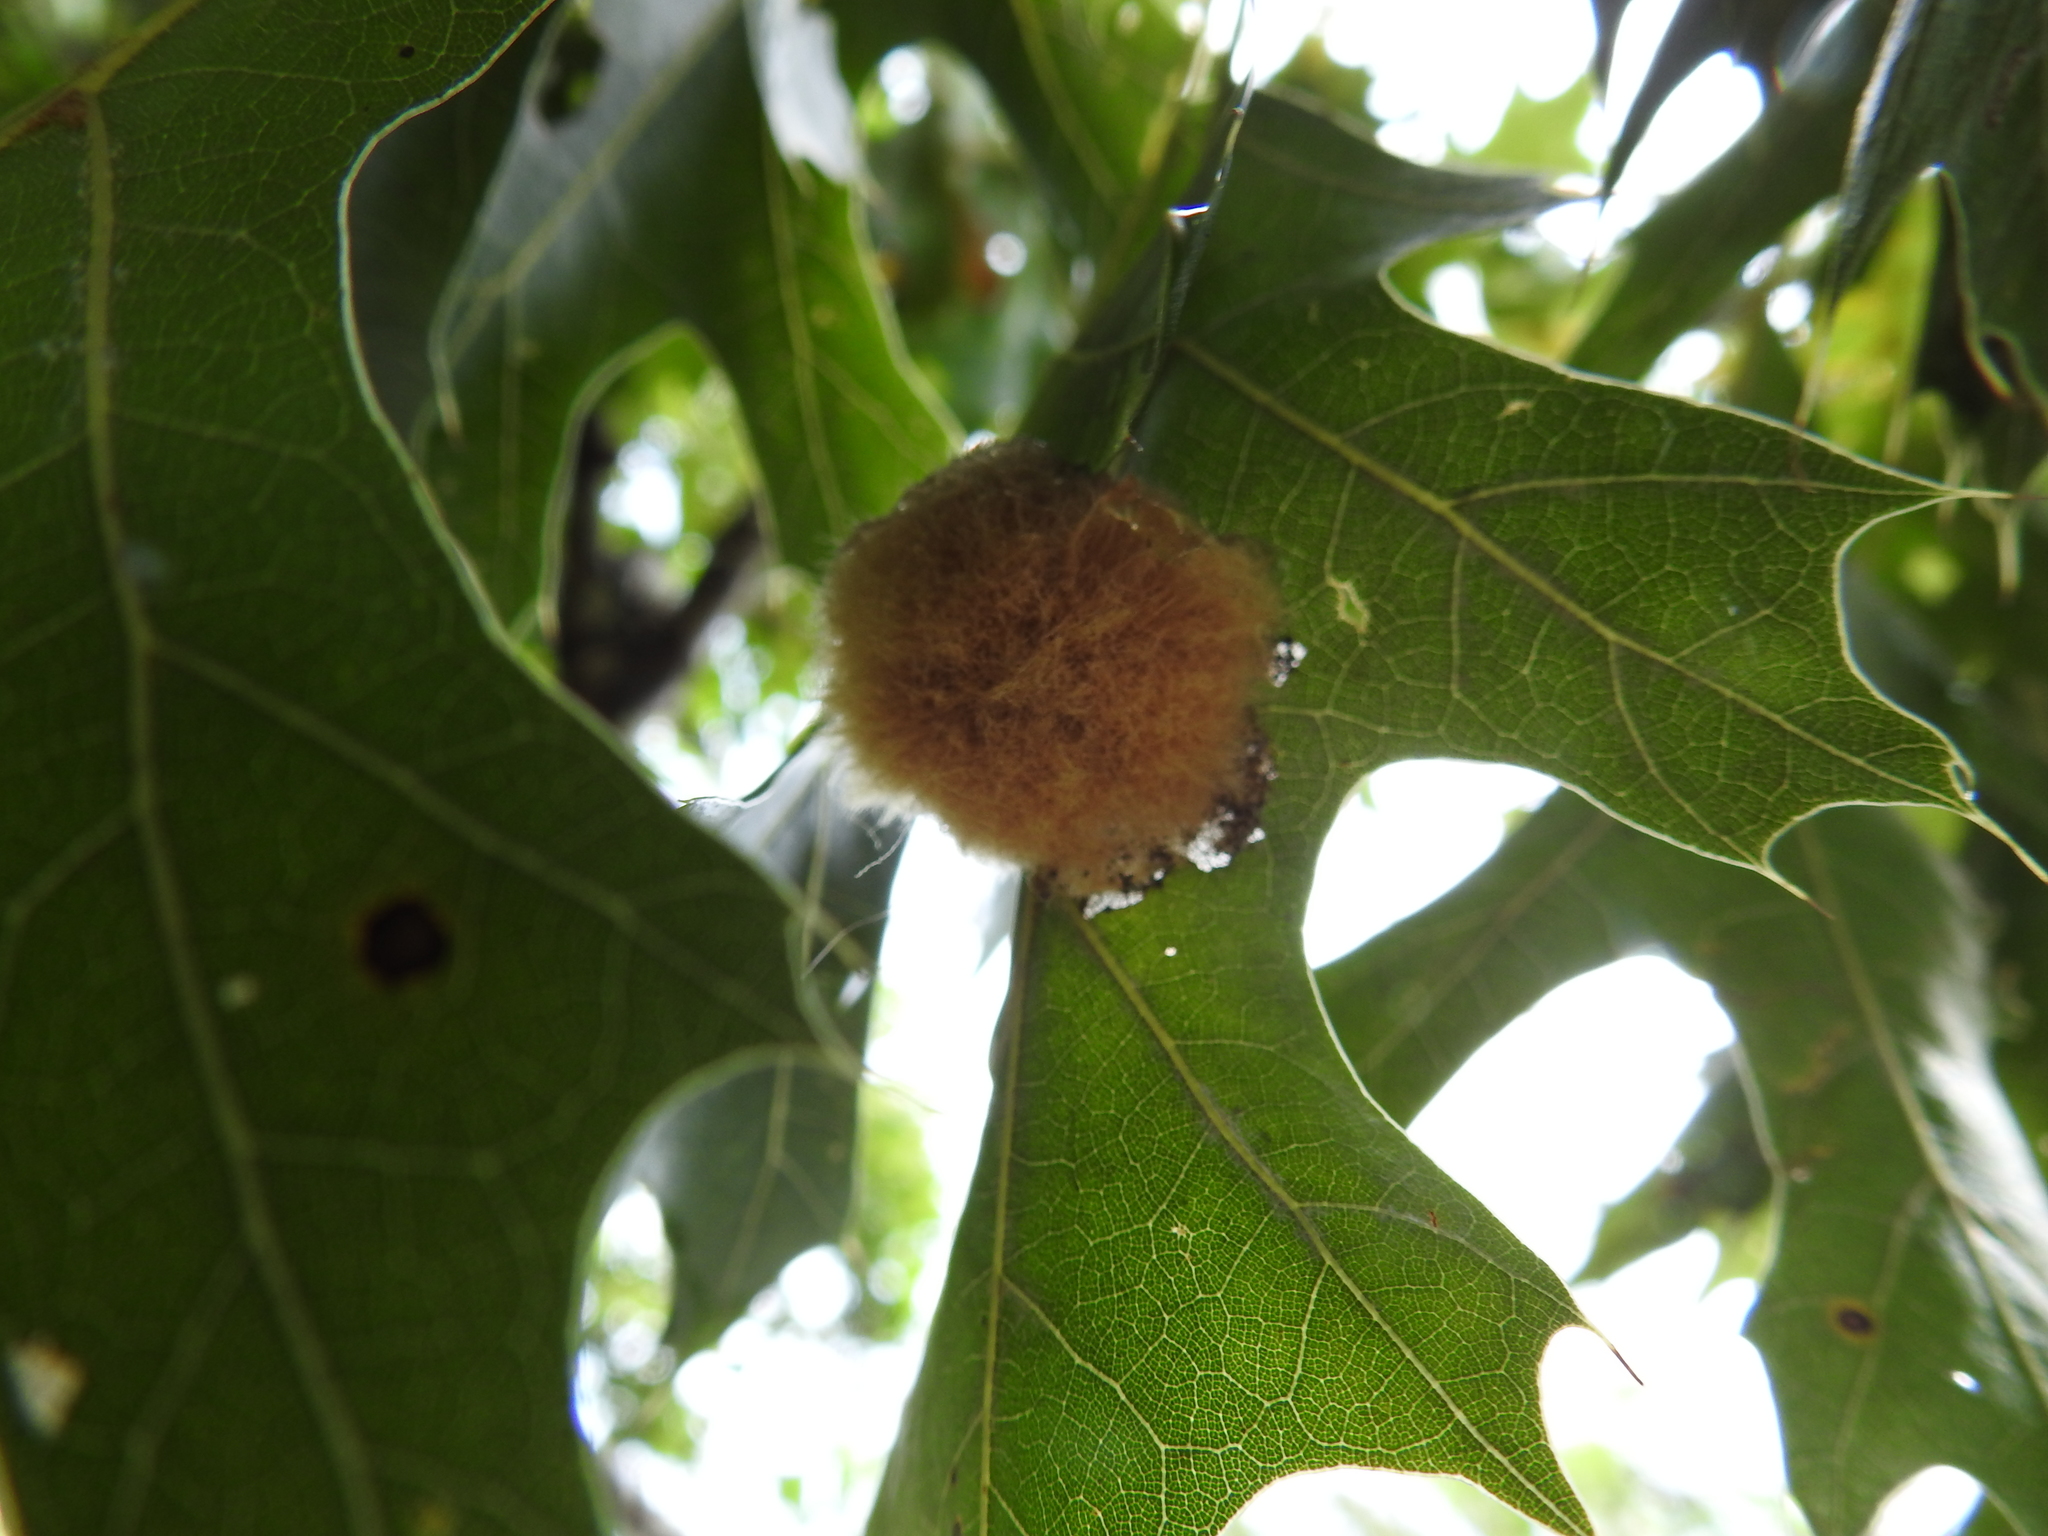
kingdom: Animalia
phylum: Arthropoda
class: Insecta
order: Hymenoptera
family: Cynipidae
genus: Callirhytis
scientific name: Callirhytis
